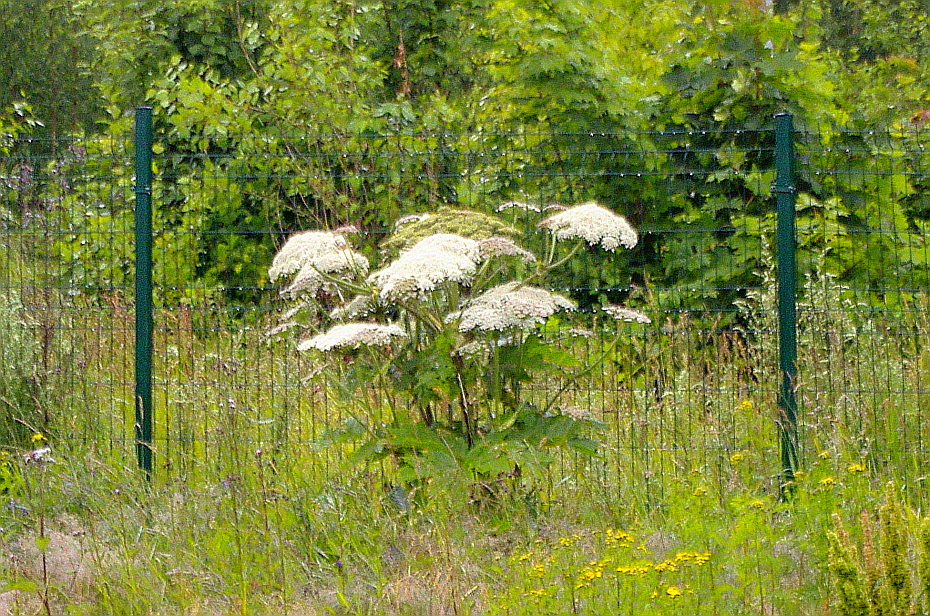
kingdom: Plantae
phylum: Tracheophyta
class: Magnoliopsida
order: Apiales
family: Apiaceae
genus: Heracleum
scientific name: Heracleum sosnowskyi
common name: Sosnowsky's hogweed
